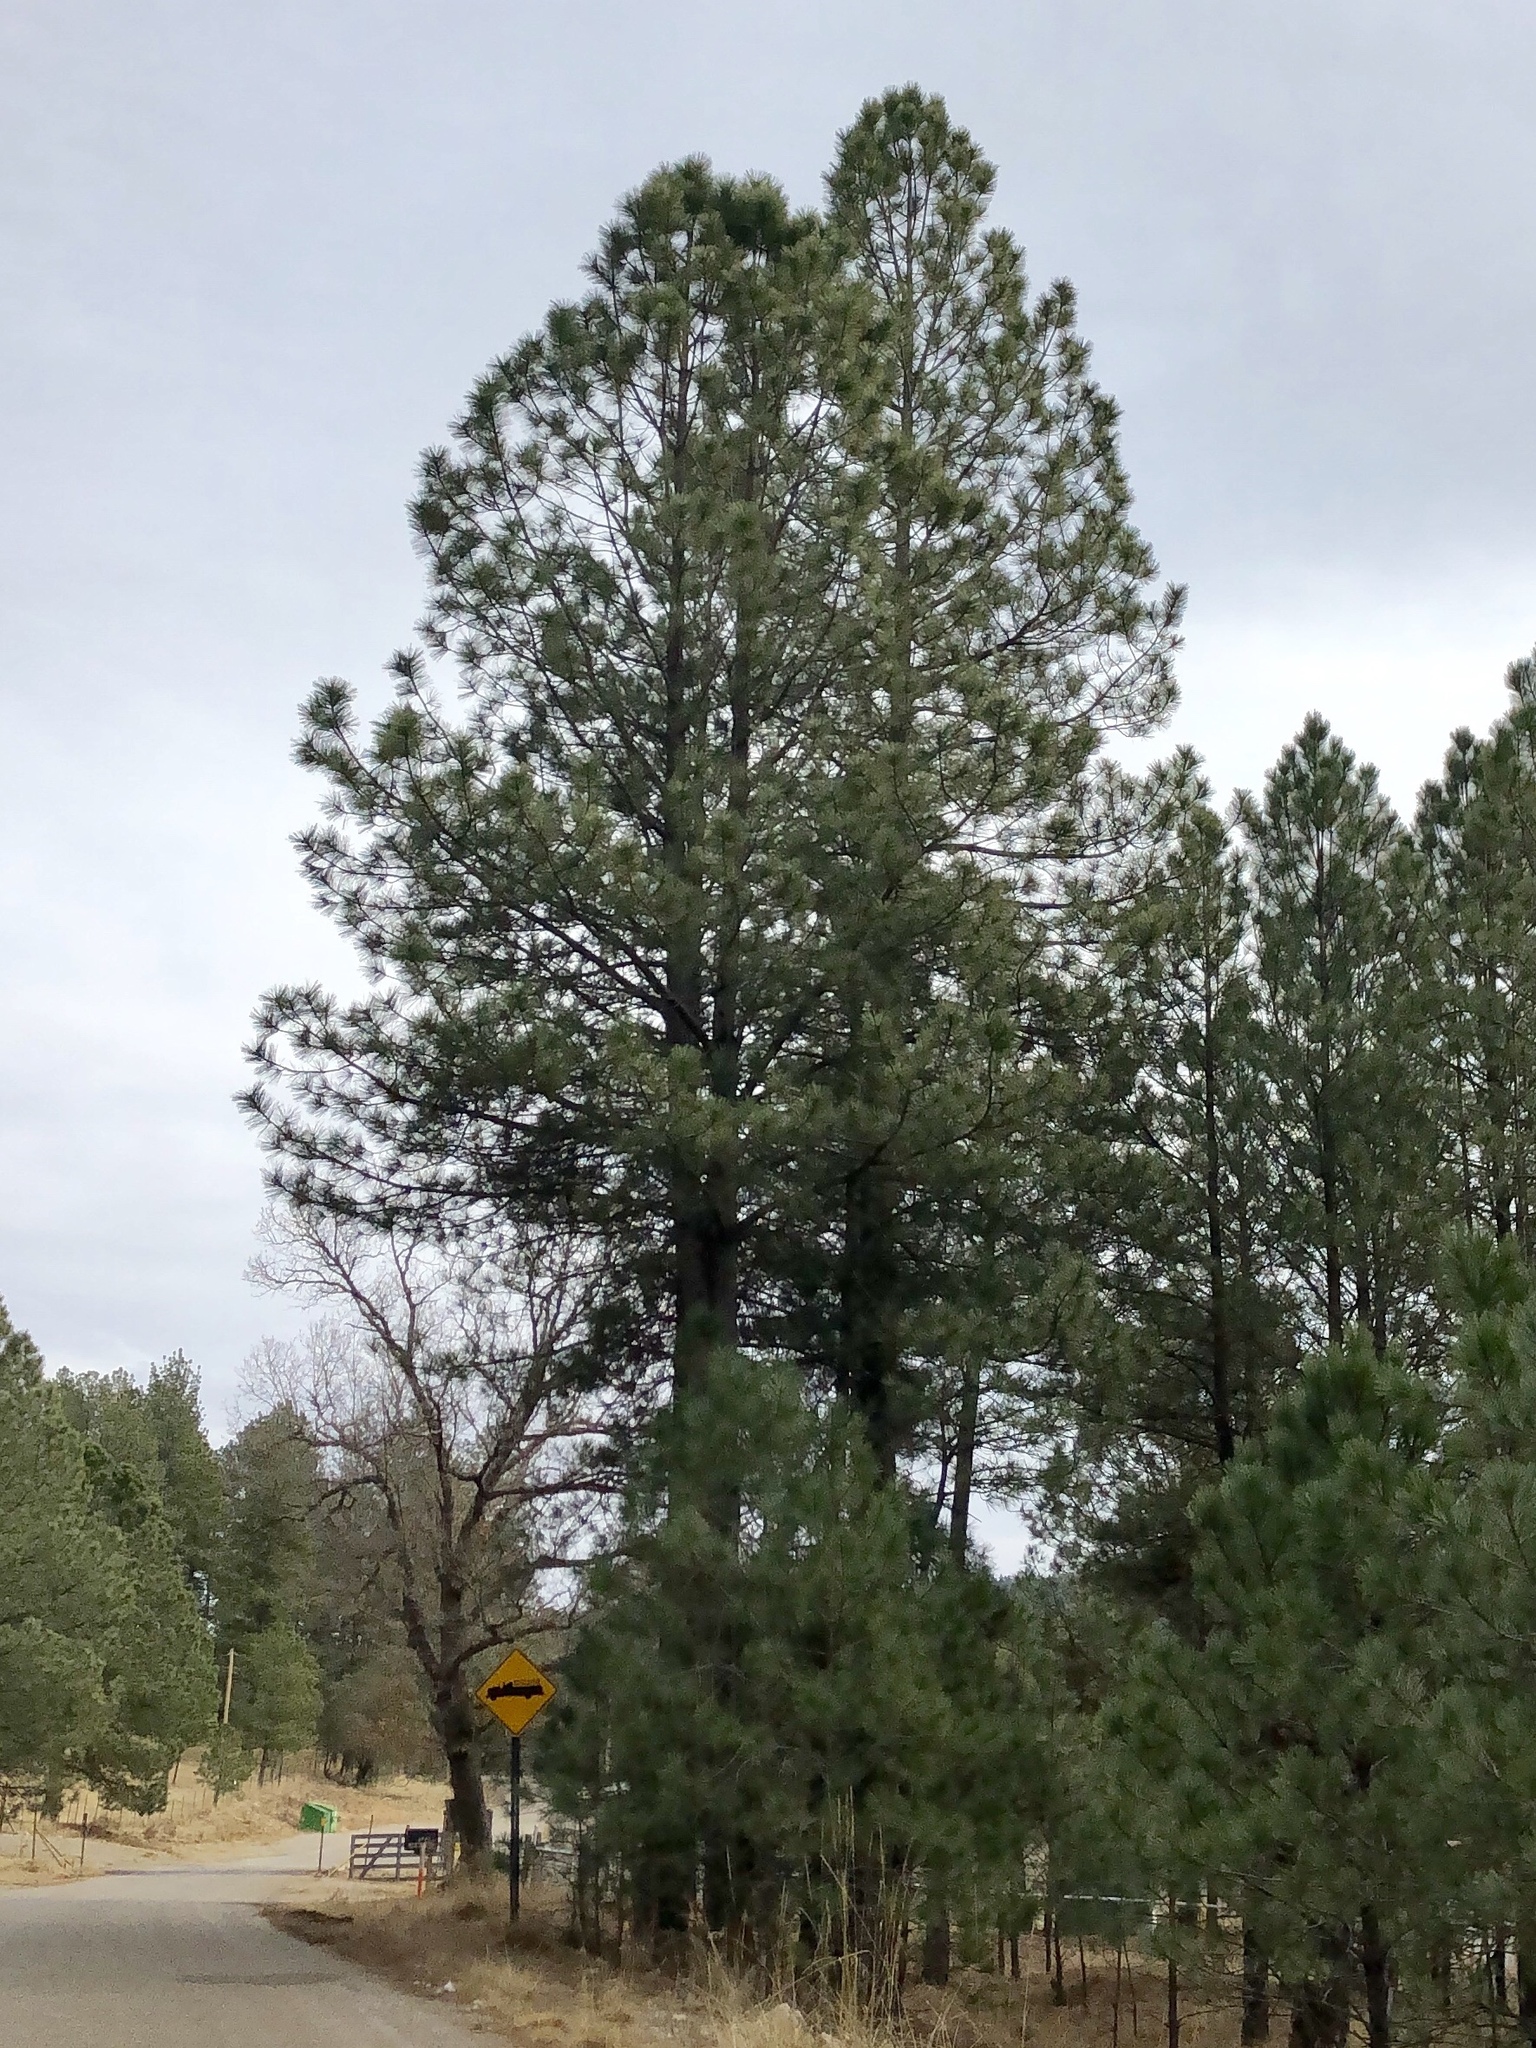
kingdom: Plantae
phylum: Tracheophyta
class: Pinopsida
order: Pinales
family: Pinaceae
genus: Pinus
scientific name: Pinus ponderosa
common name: Western yellow-pine
